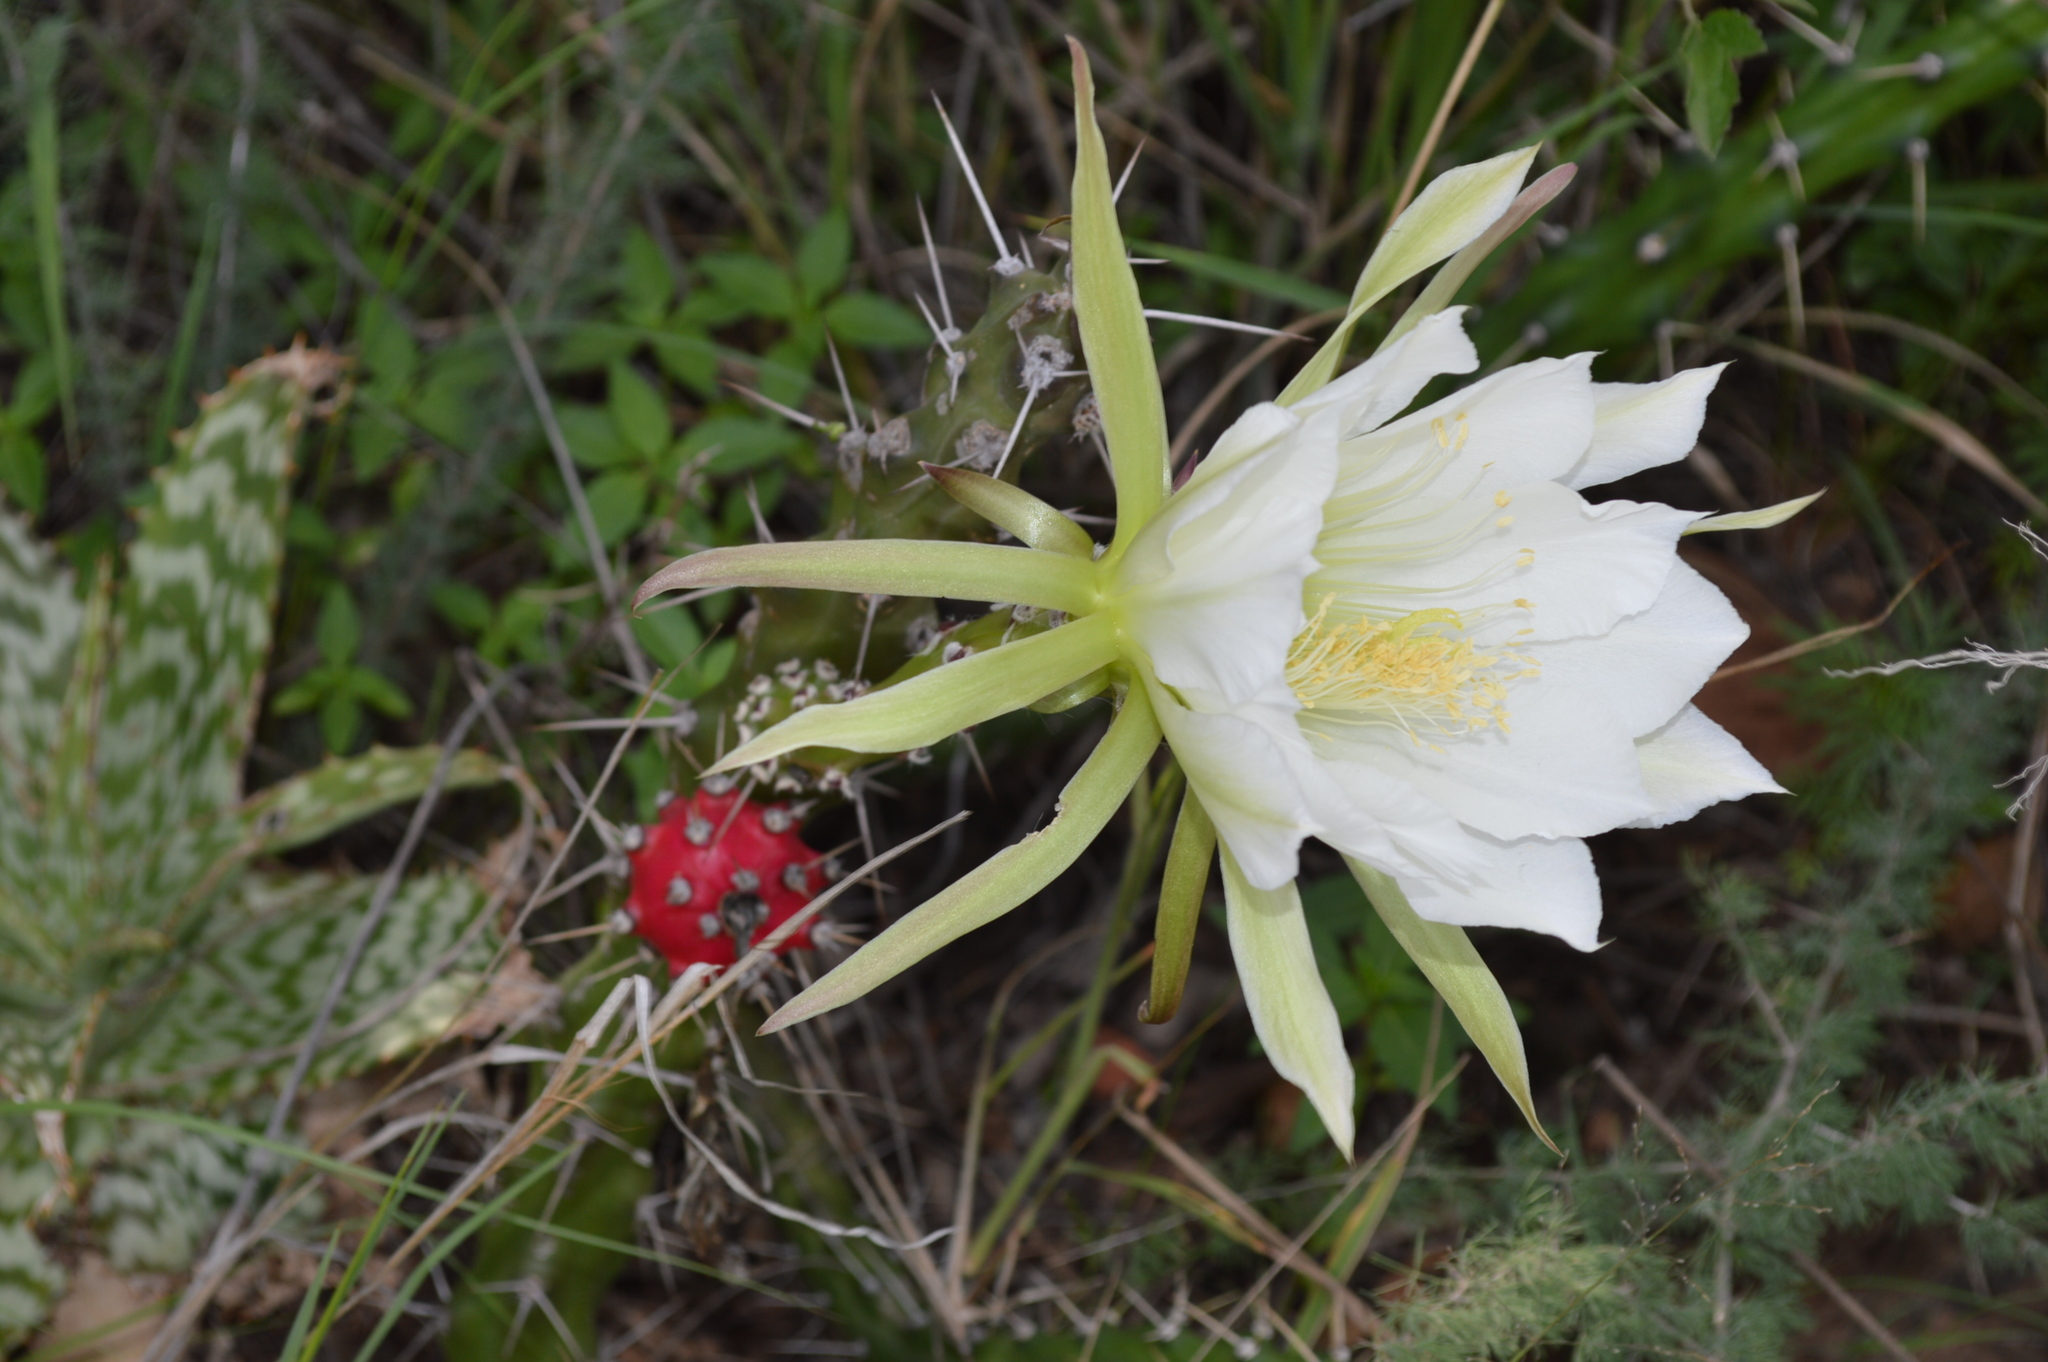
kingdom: Plantae
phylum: Tracheophyta
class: Magnoliopsida
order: Caryophyllales
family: Cactaceae
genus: Harrisia
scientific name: Harrisia martinii
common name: Moon cactus
